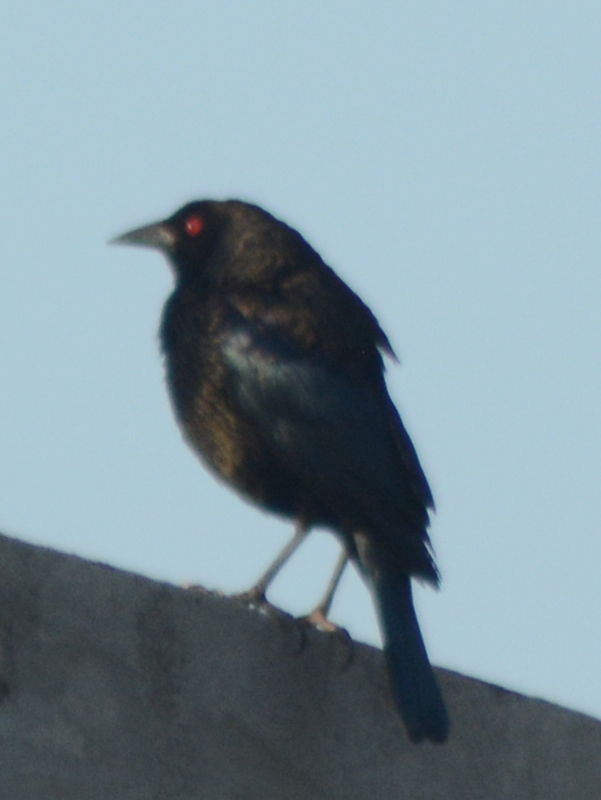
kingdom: Animalia
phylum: Chordata
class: Aves
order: Passeriformes
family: Icteridae
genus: Molothrus
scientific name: Molothrus aeneus
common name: Bronzed cowbird
